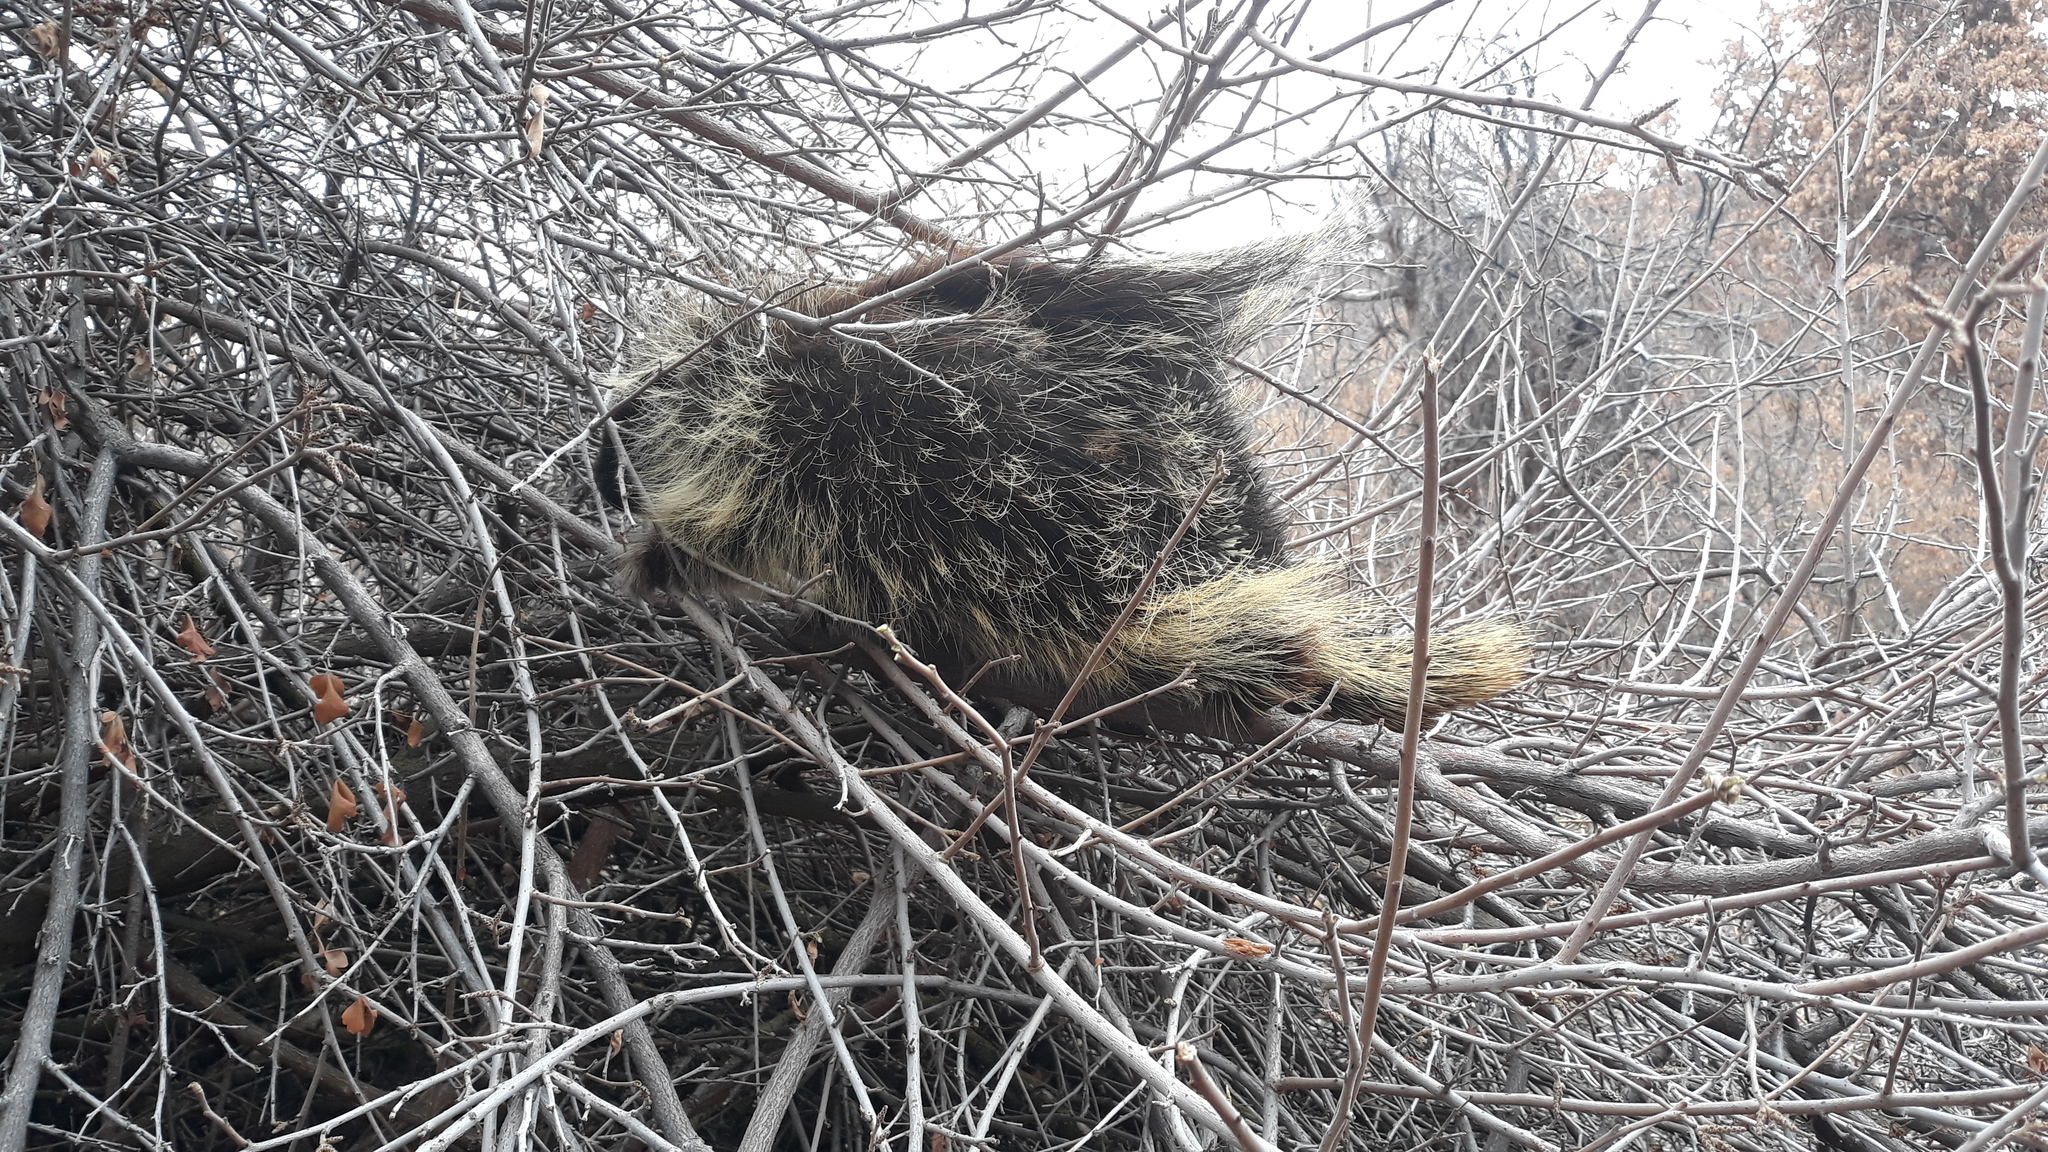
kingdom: Animalia
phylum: Chordata
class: Mammalia
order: Rodentia
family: Erethizontidae
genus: Erethizon
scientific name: Erethizon dorsatus
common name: North american porcupine
